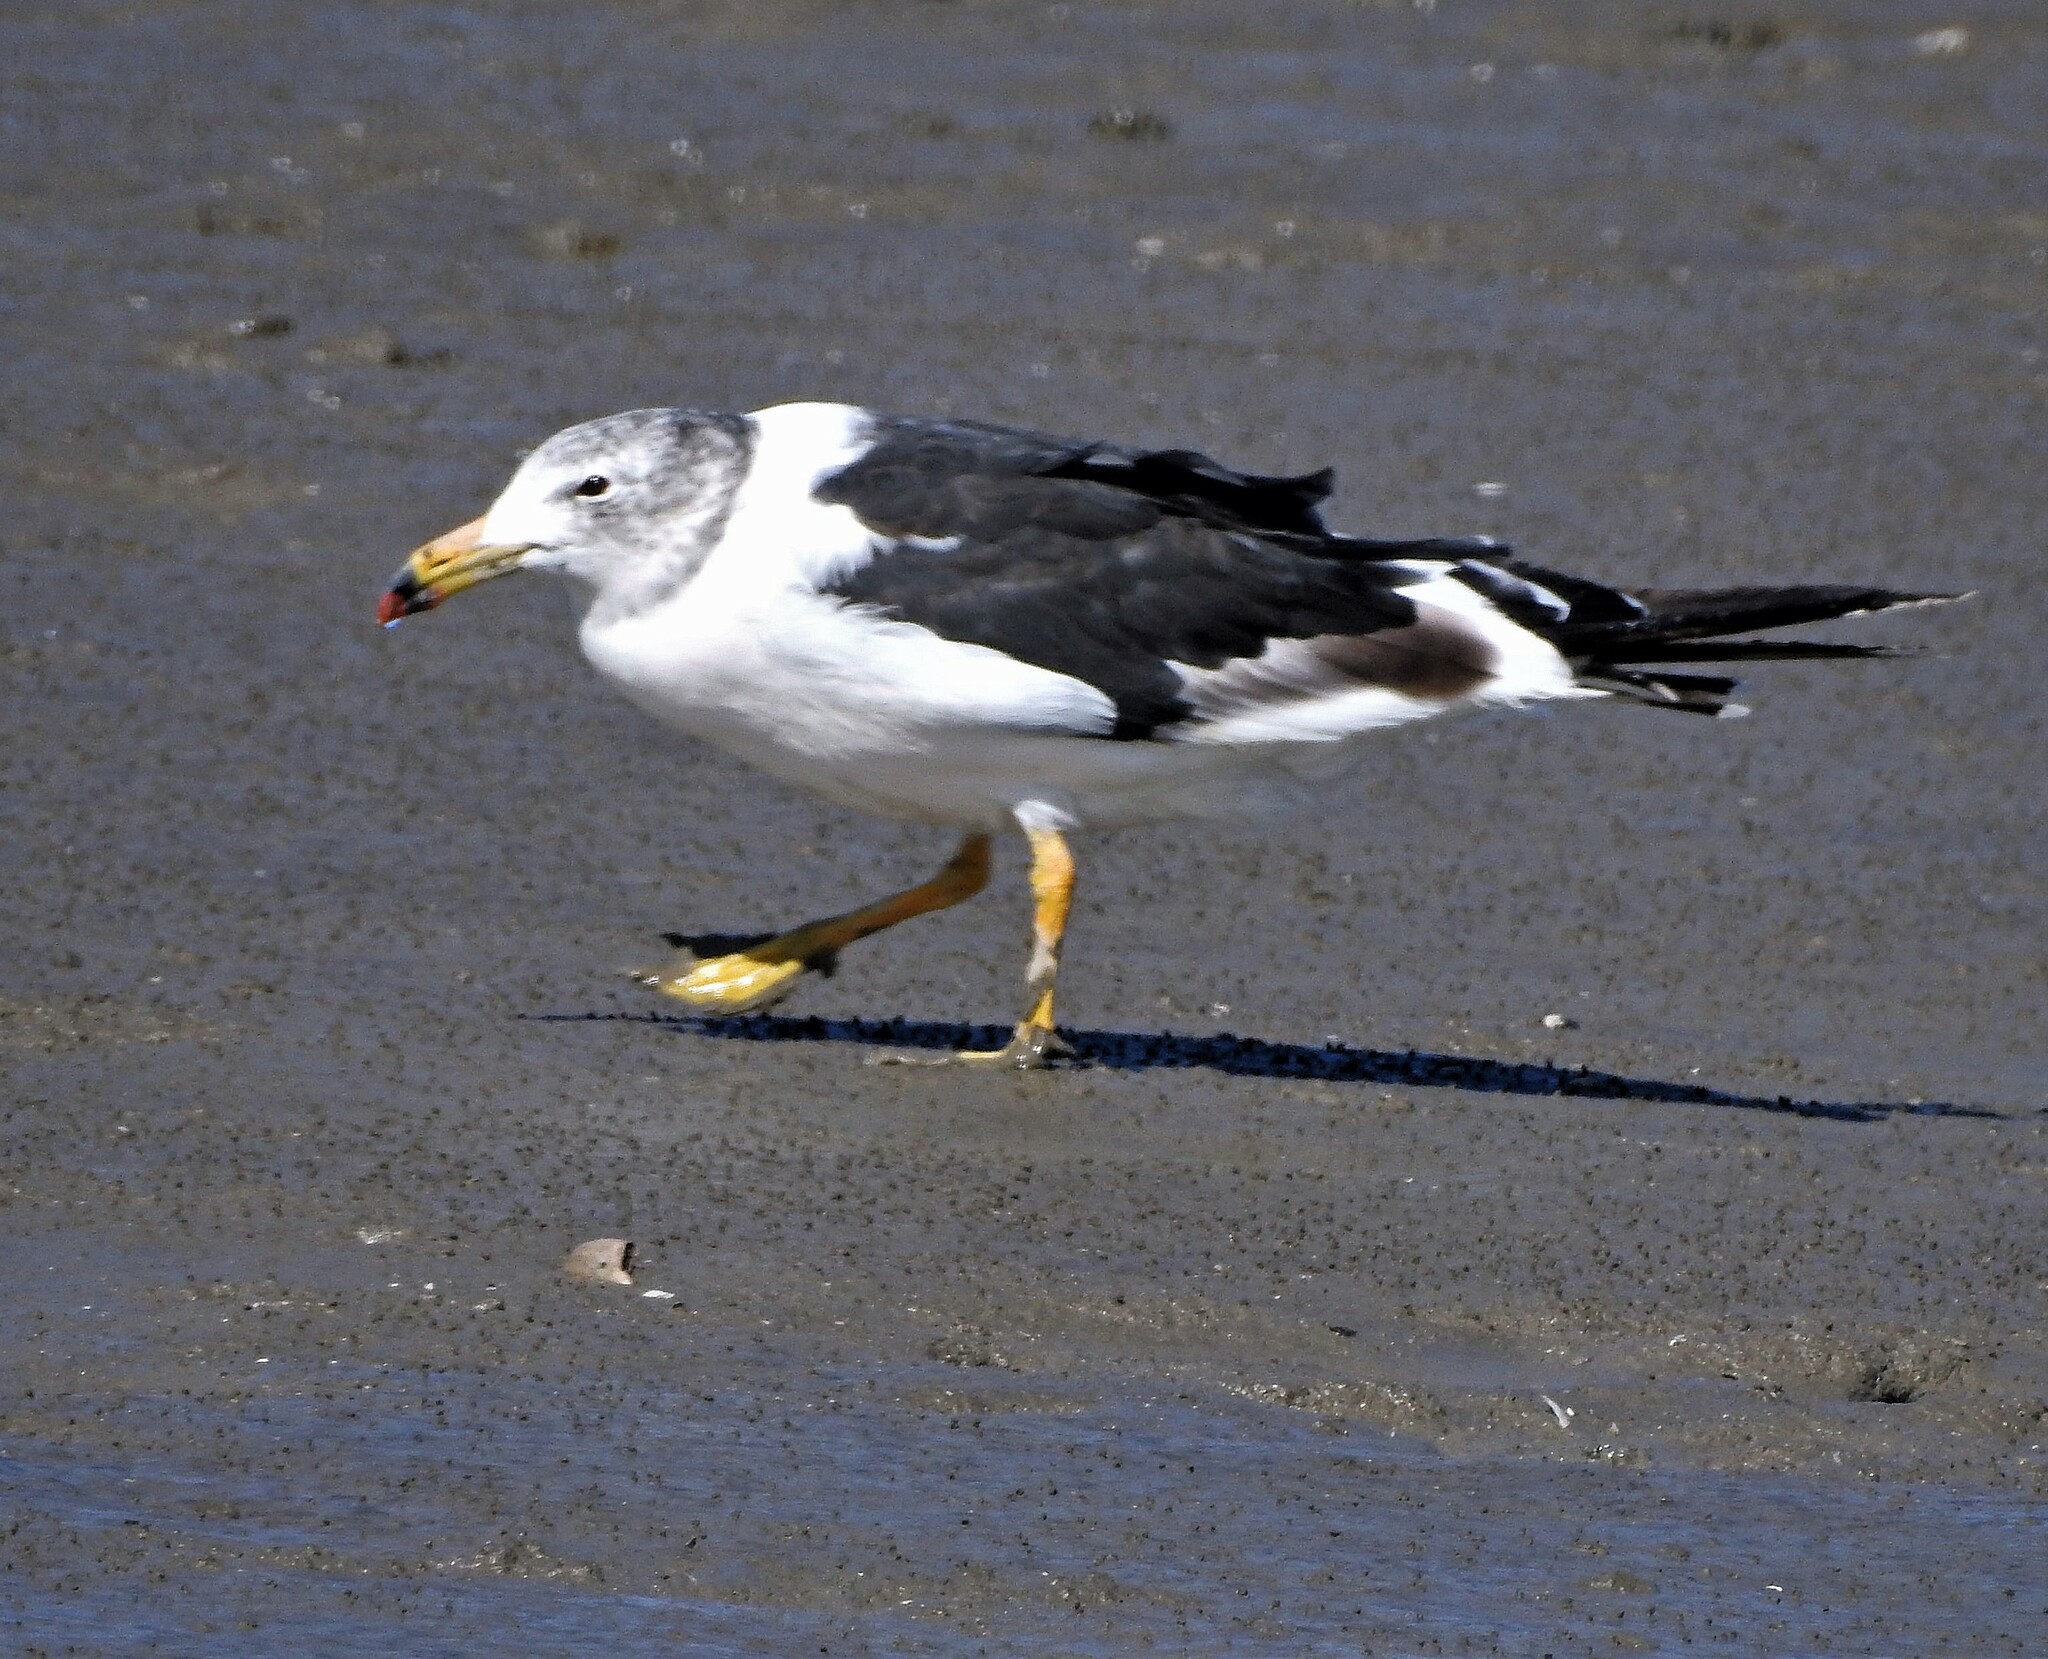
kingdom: Animalia
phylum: Chordata
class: Aves
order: Charadriiformes
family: Laridae
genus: Larus
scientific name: Larus atlanticus
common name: Olrog's gull
